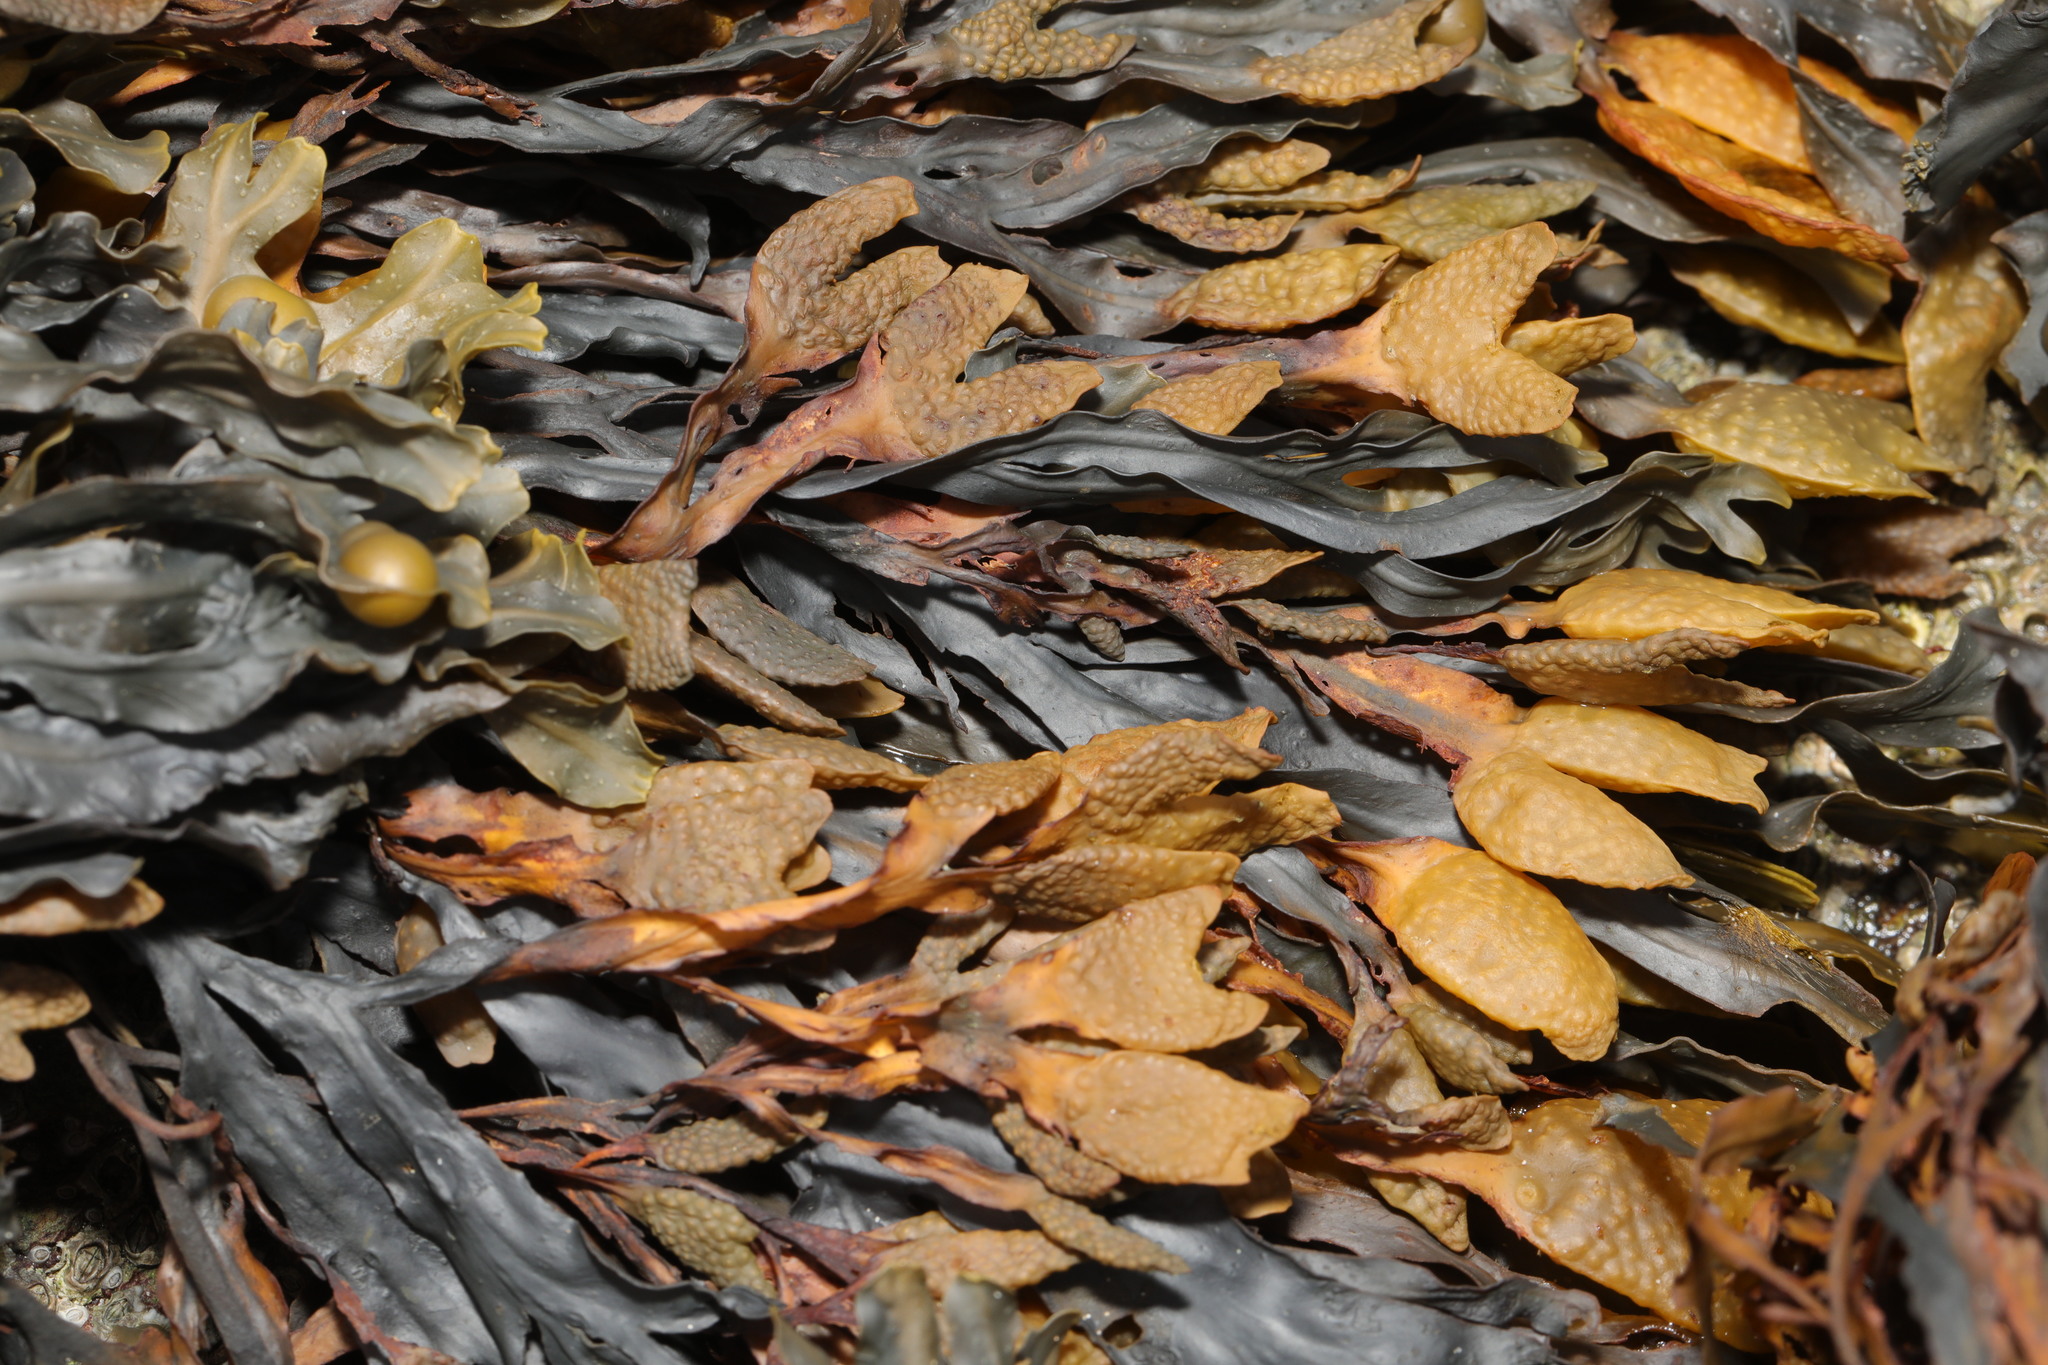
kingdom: Chromista
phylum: Ochrophyta
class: Phaeophyceae
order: Fucales
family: Fucaceae
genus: Fucus
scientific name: Fucus spiralis
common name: Spiral wrack
